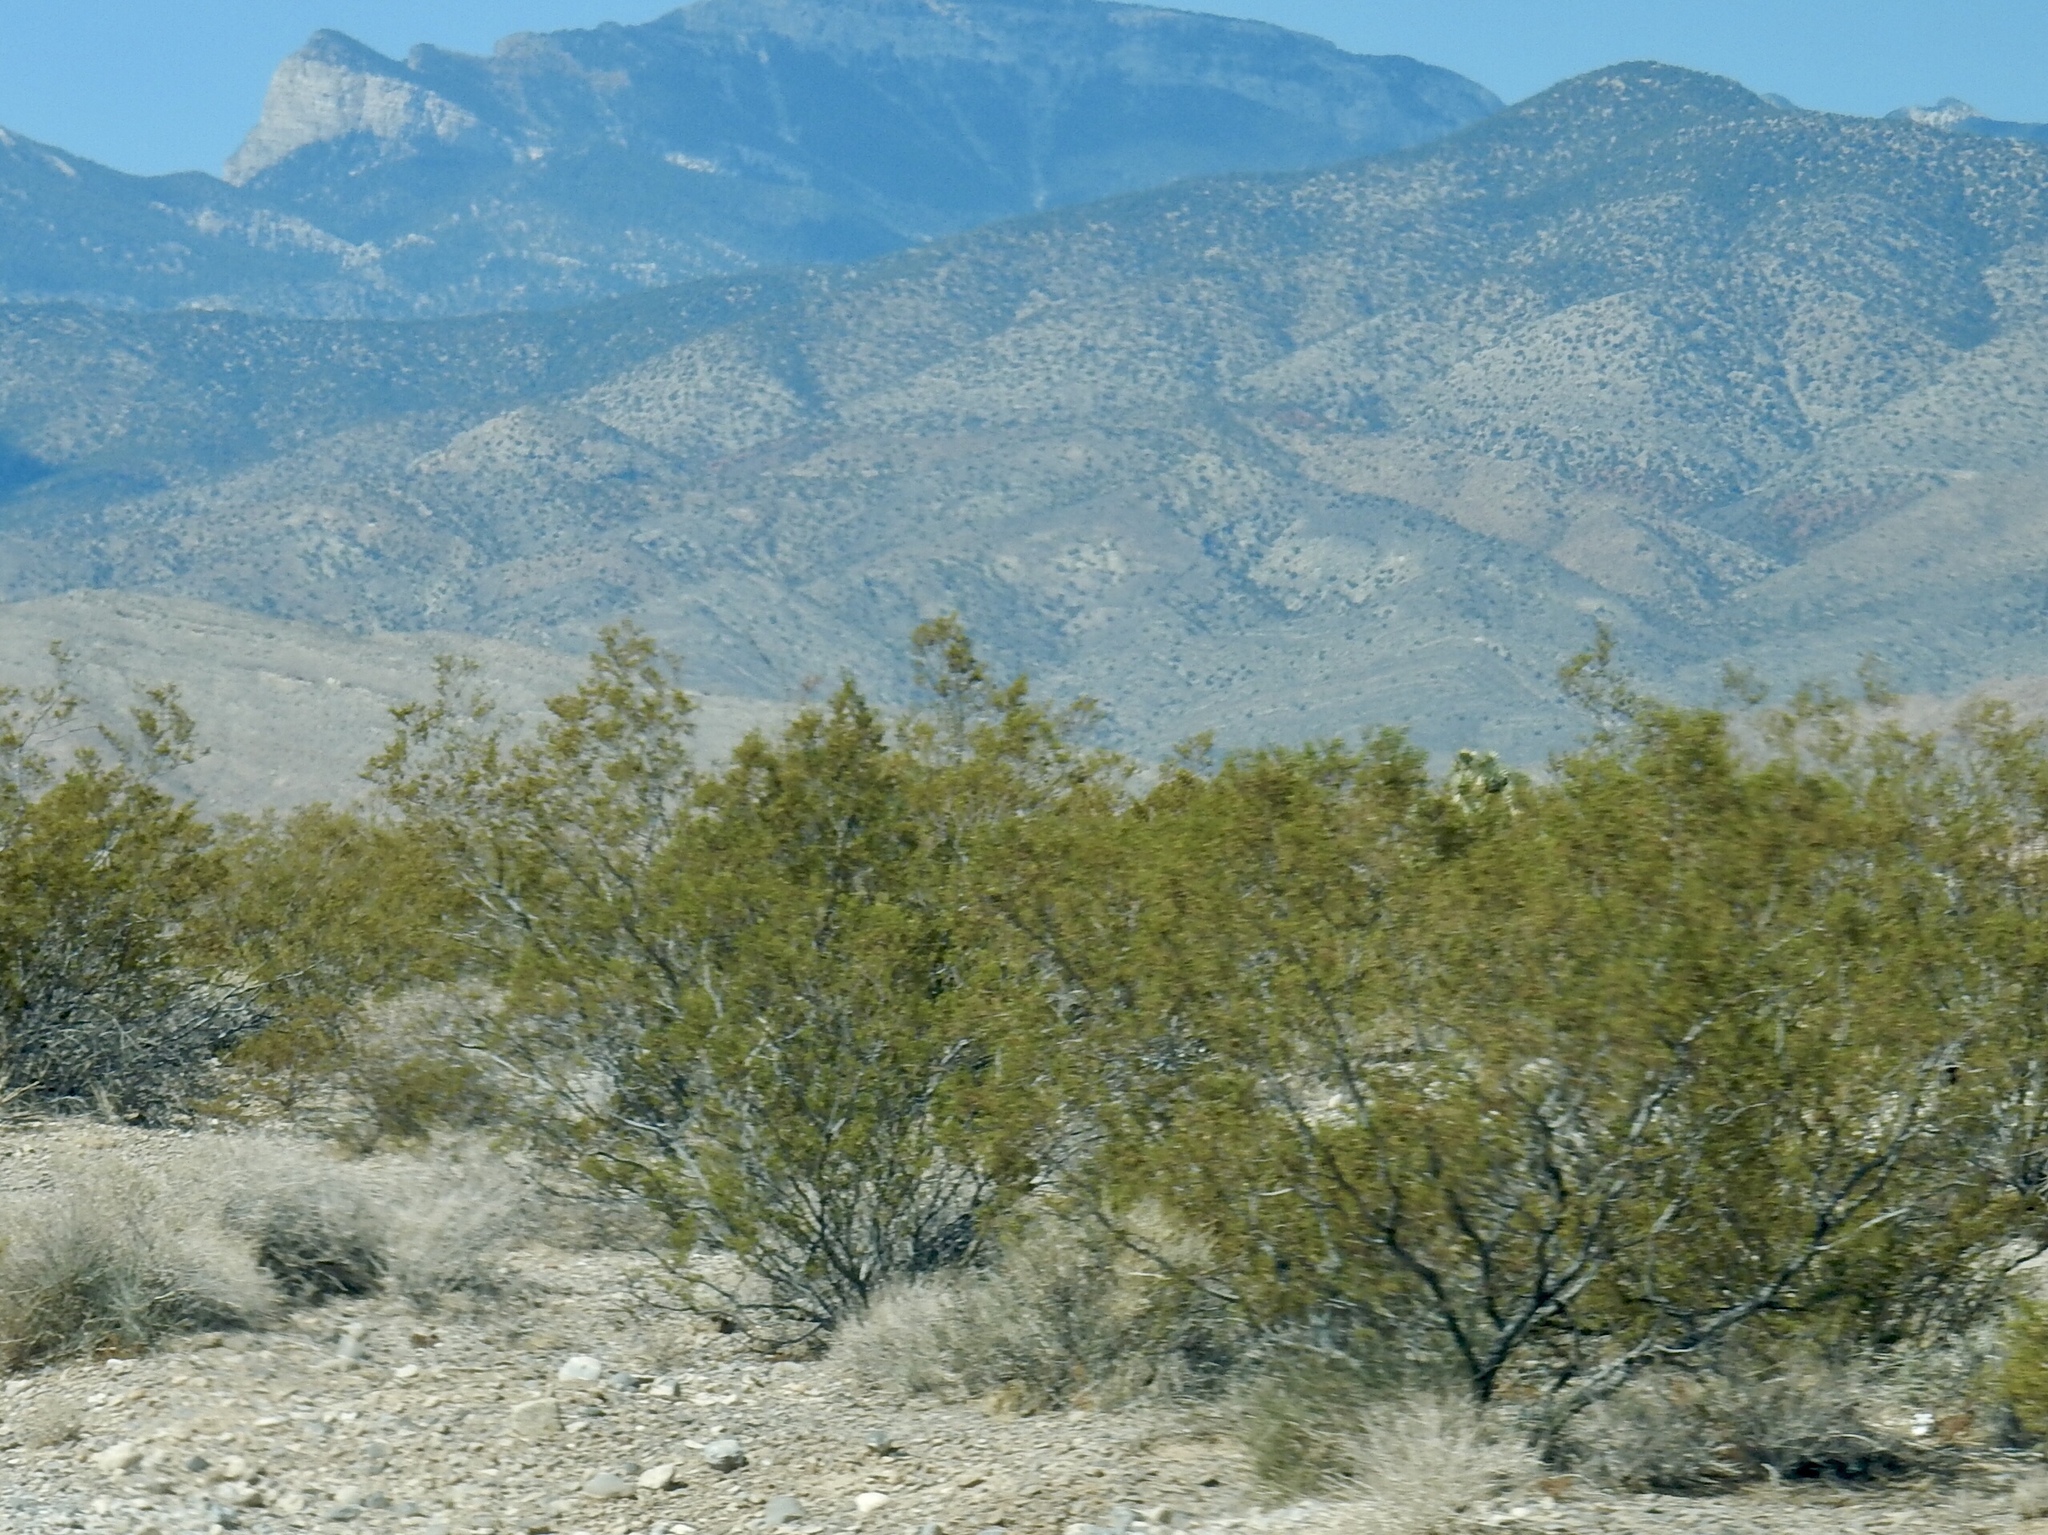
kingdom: Plantae
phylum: Tracheophyta
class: Magnoliopsida
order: Zygophyllales
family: Zygophyllaceae
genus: Larrea
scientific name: Larrea tridentata
